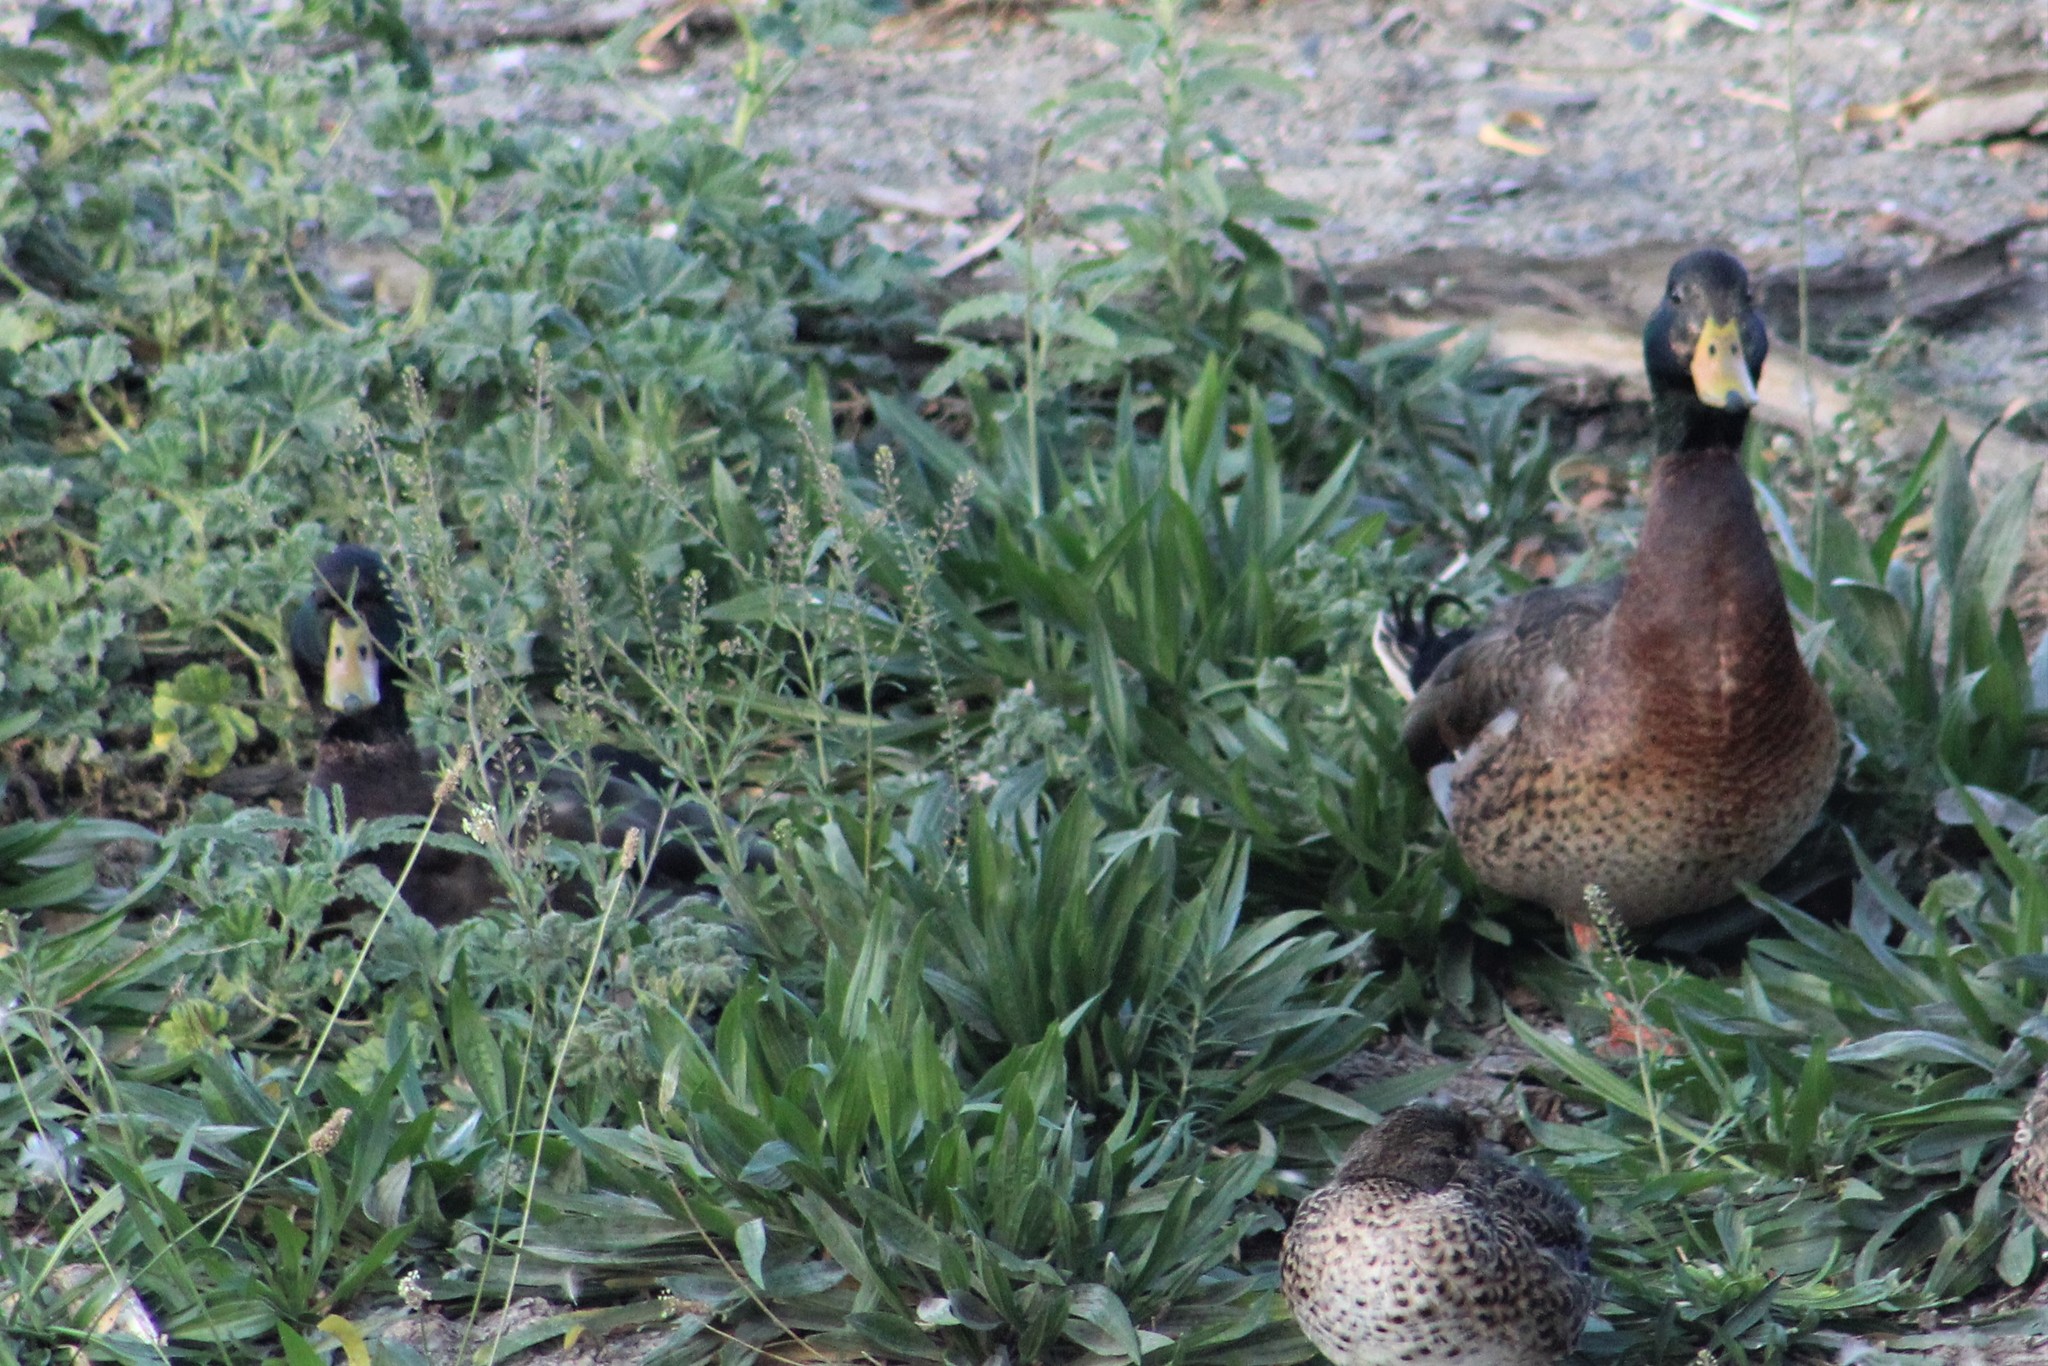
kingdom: Animalia
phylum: Chordata
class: Aves
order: Anseriformes
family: Anatidae
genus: Anas
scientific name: Anas platyrhynchos
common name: Mallard
